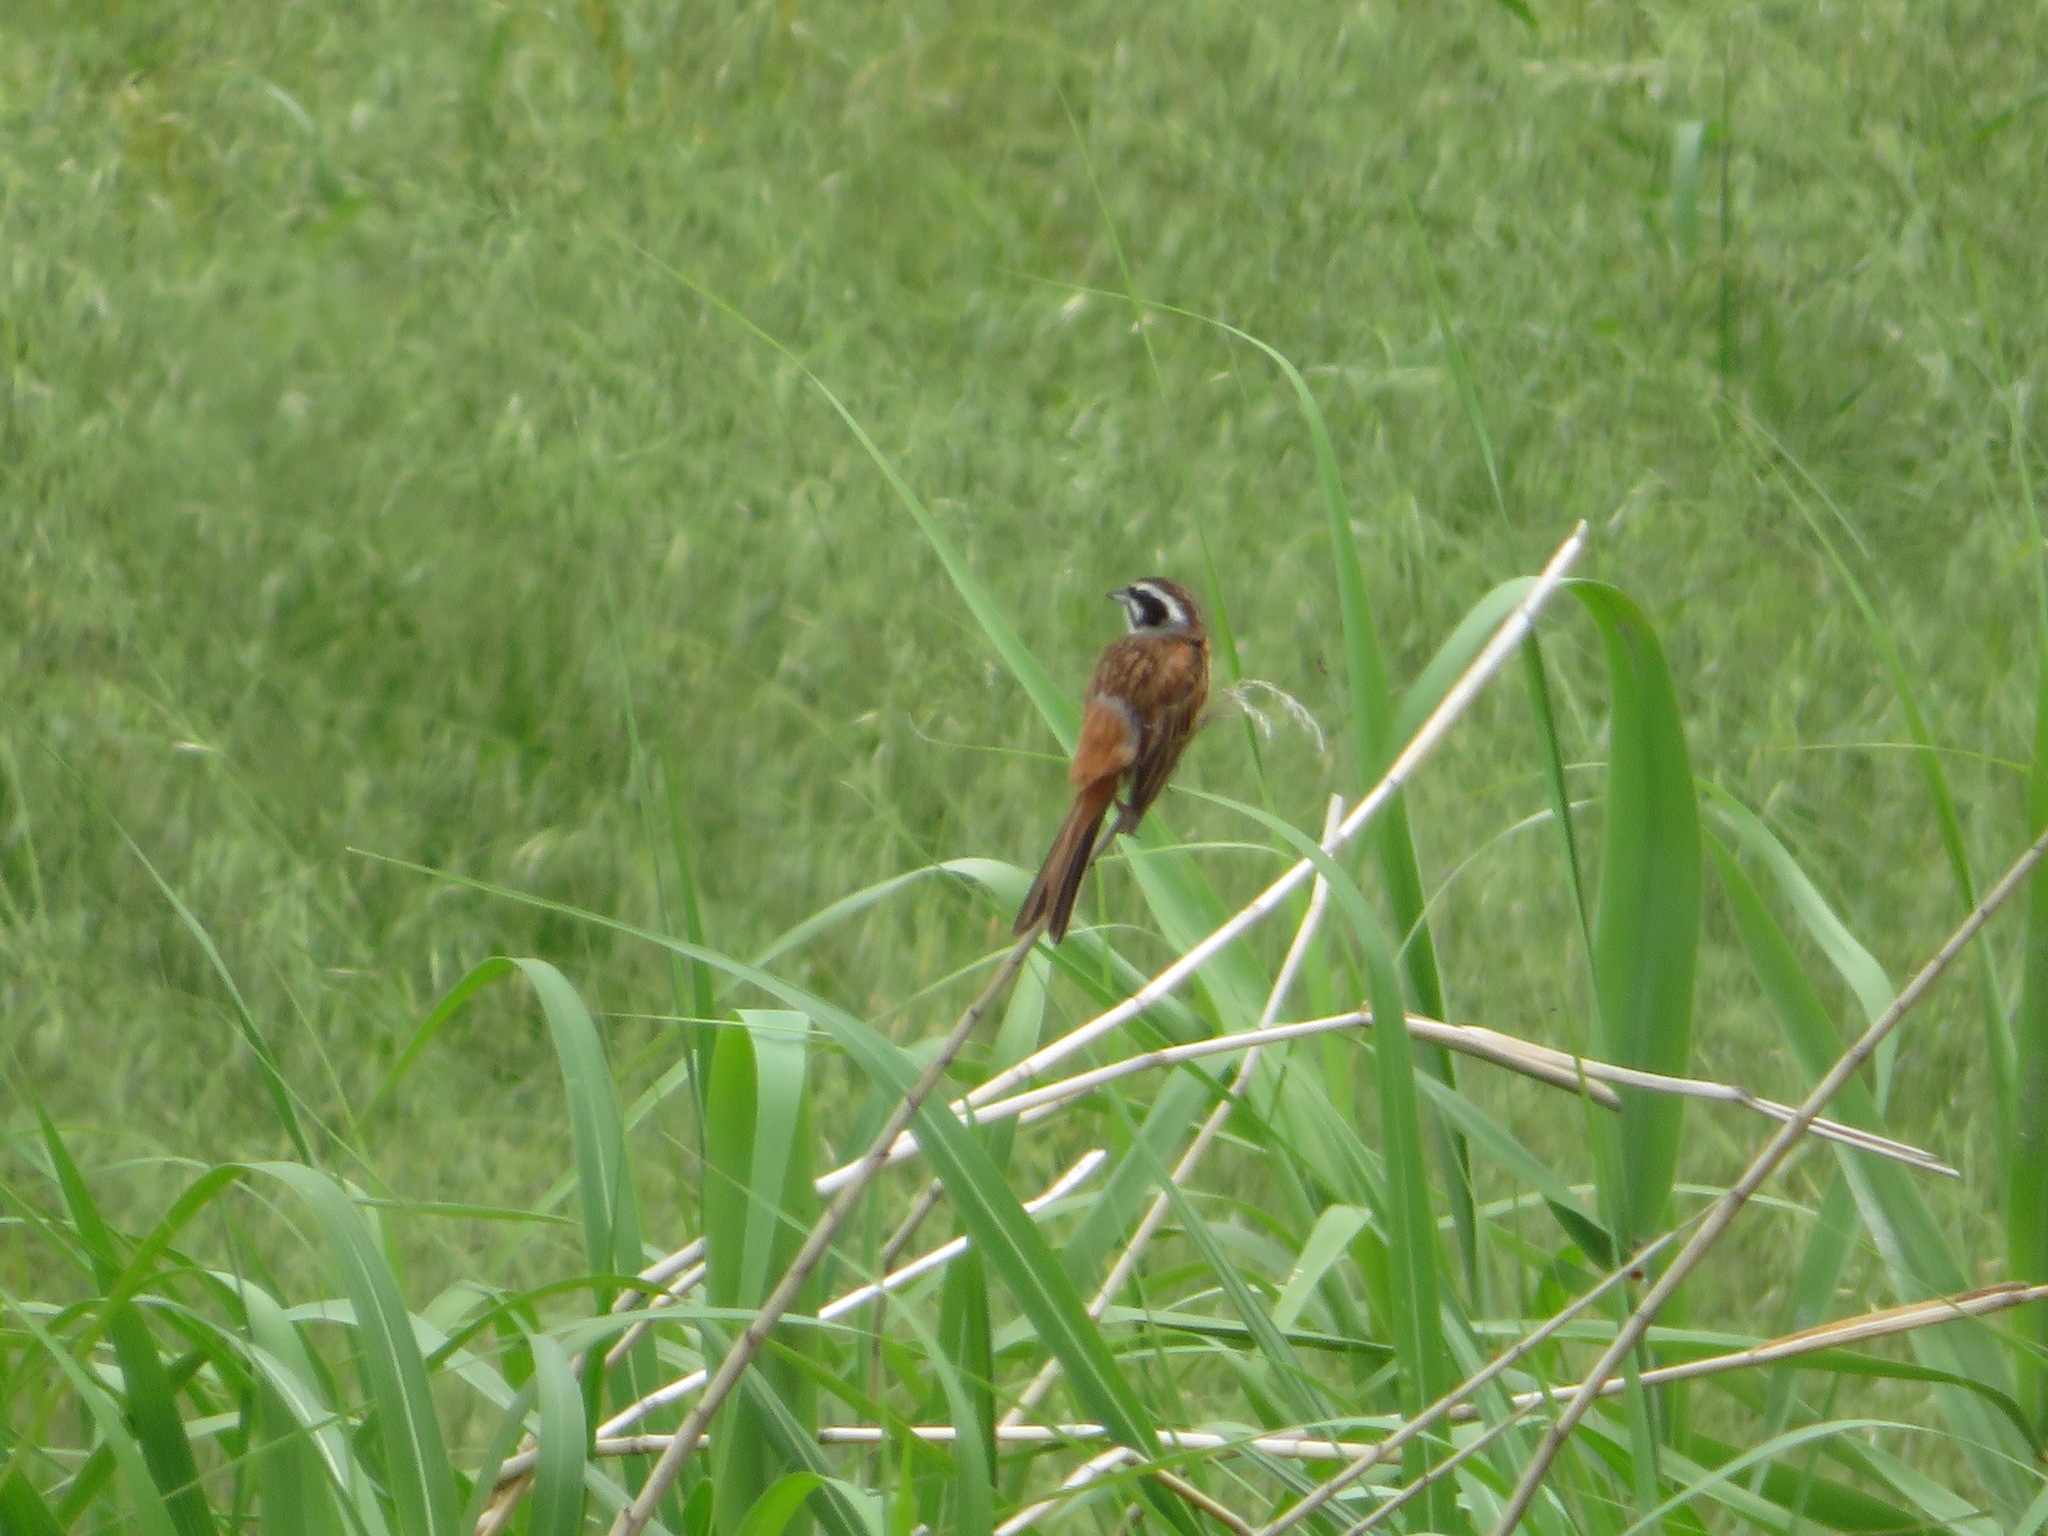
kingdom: Animalia
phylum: Chordata
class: Aves
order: Passeriformes
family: Emberizidae
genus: Emberiza
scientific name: Emberiza cioides
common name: Meadow bunting
